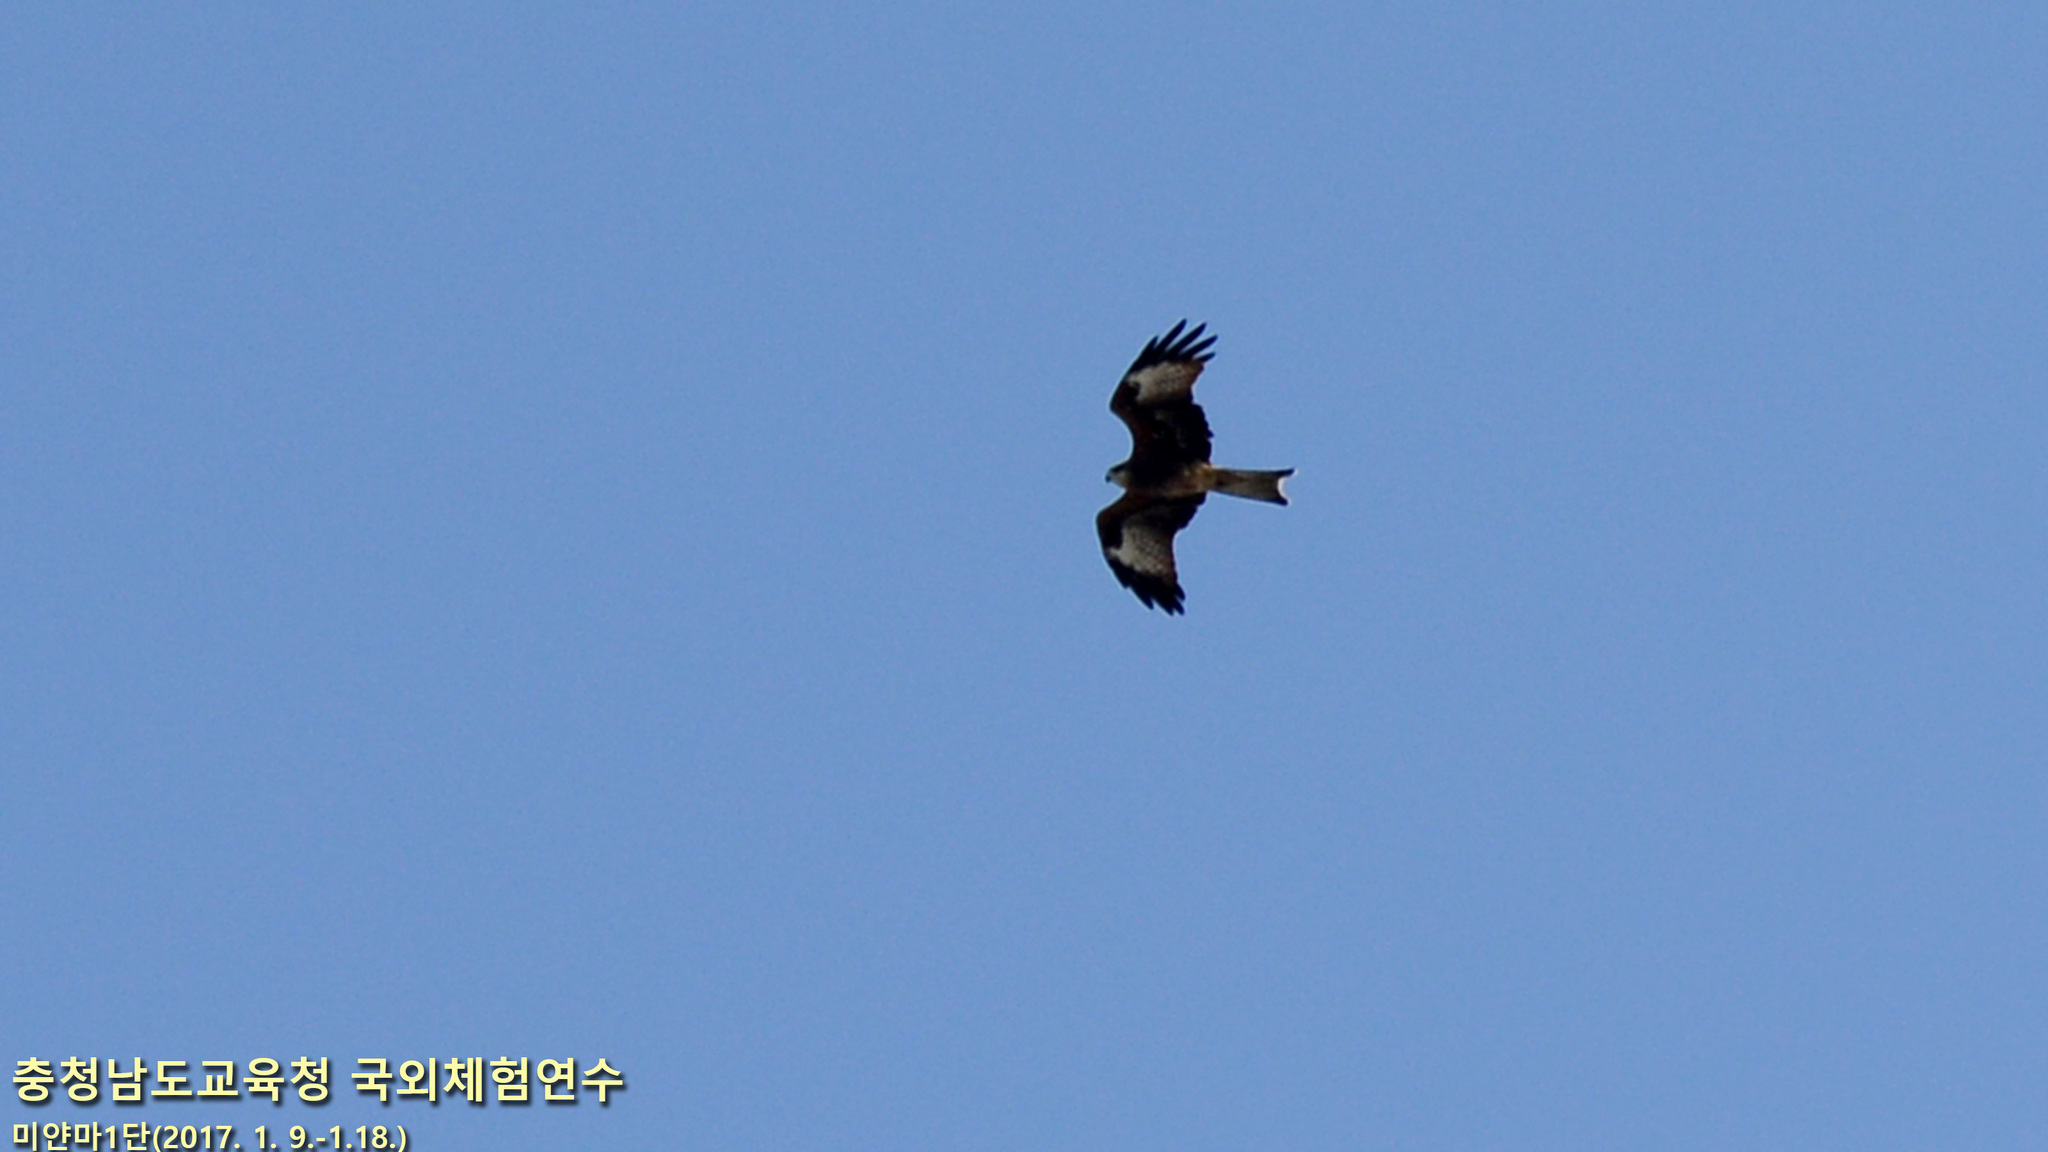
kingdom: Animalia
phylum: Chordata
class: Aves
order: Accipitriformes
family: Accipitridae
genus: Milvus
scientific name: Milvus migrans
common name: Black kite
